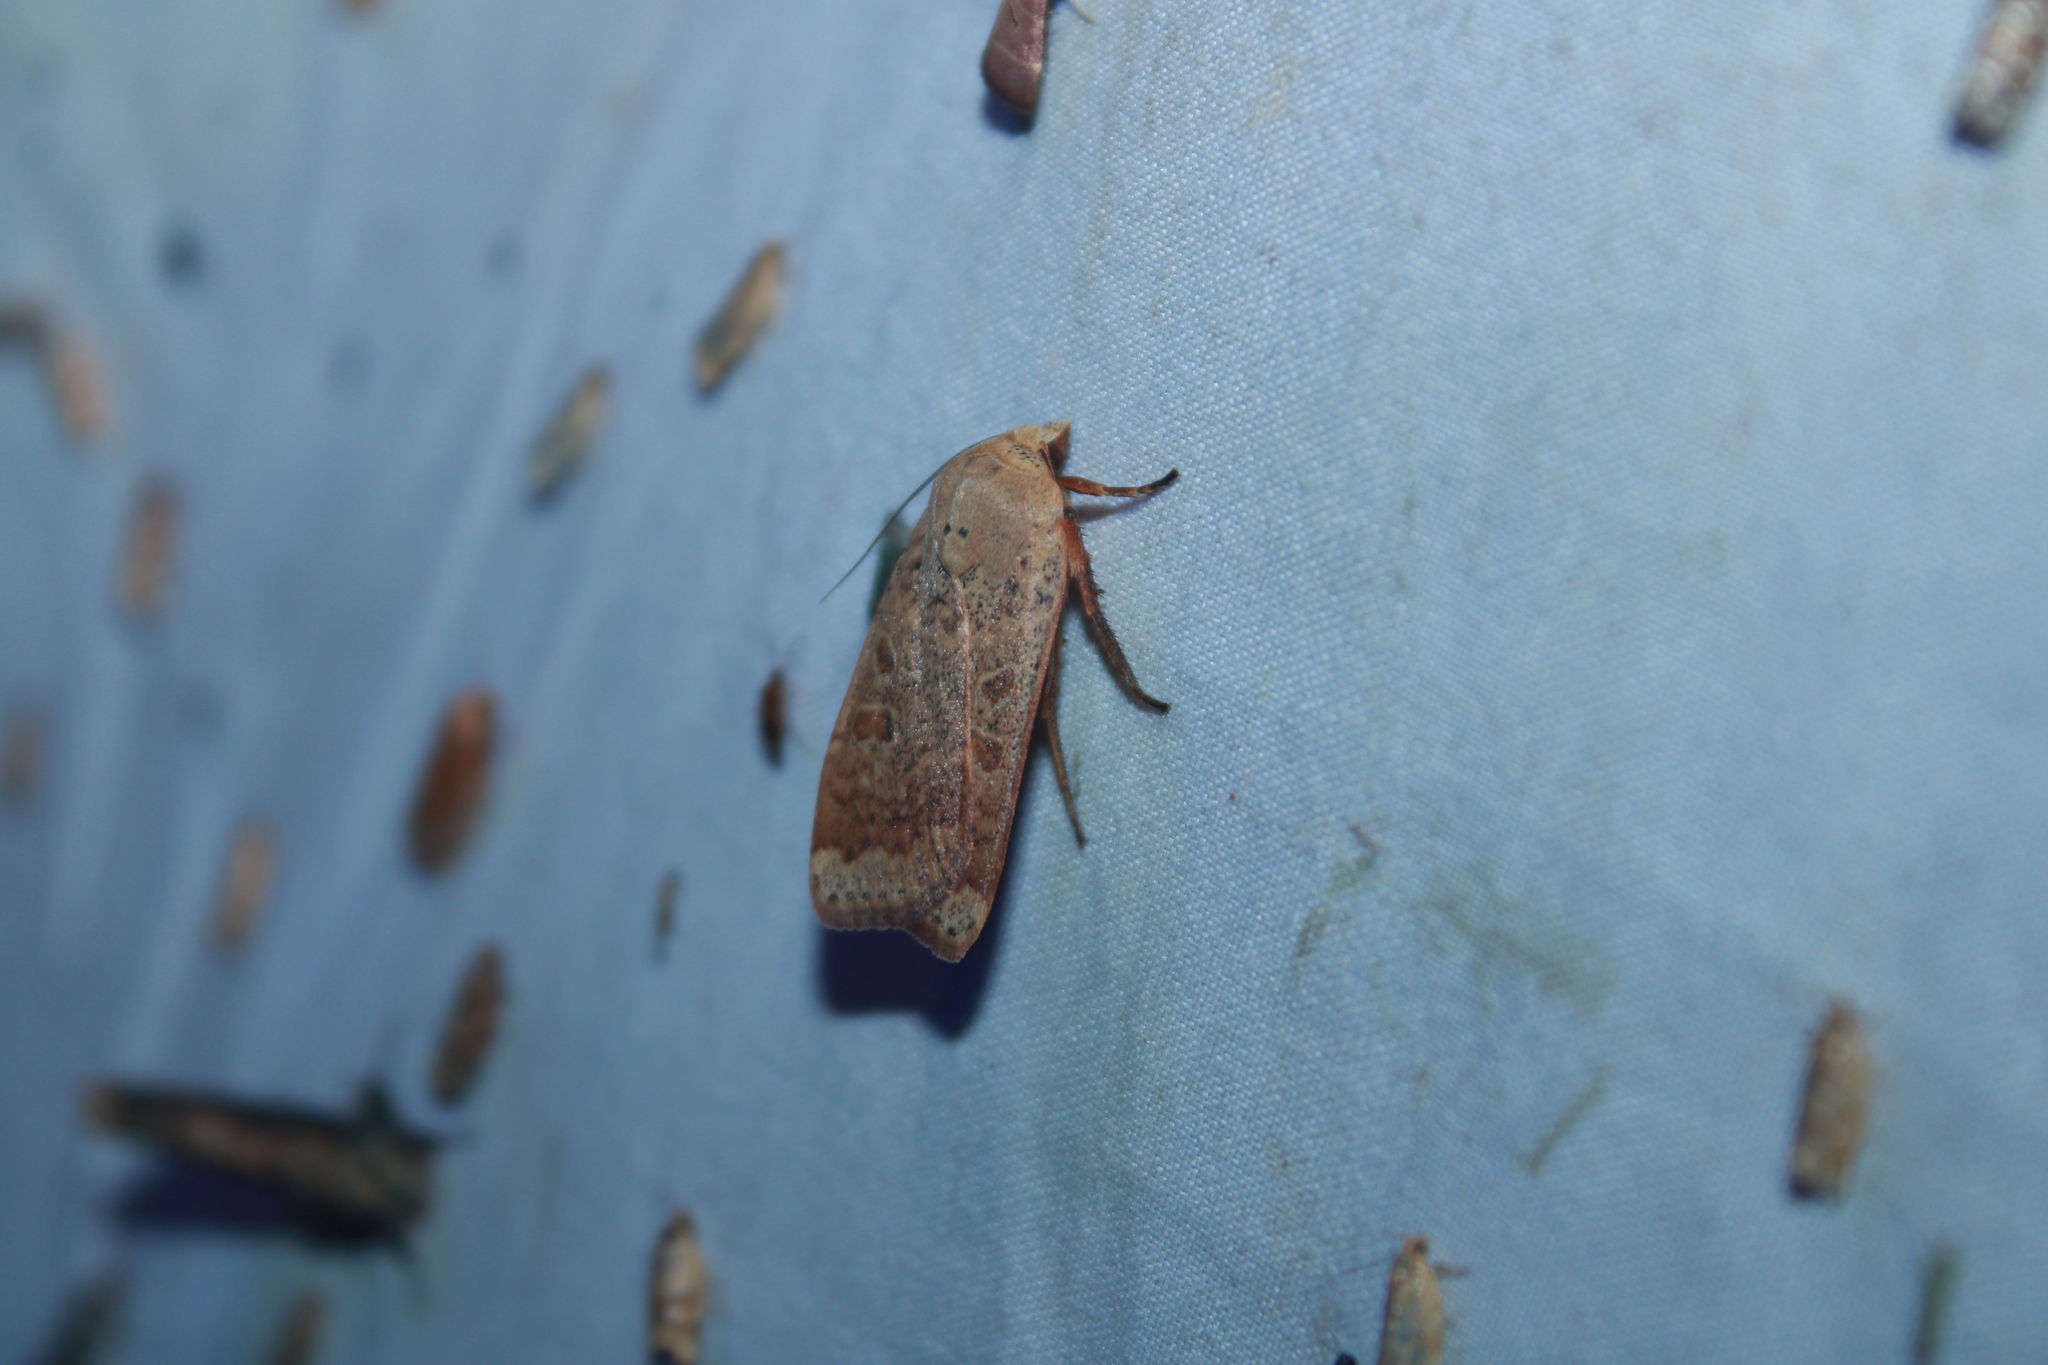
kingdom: Animalia
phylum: Arthropoda
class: Insecta
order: Lepidoptera
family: Noctuidae
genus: Abagrotis
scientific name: Abagrotis alternata
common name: Greater red dart
